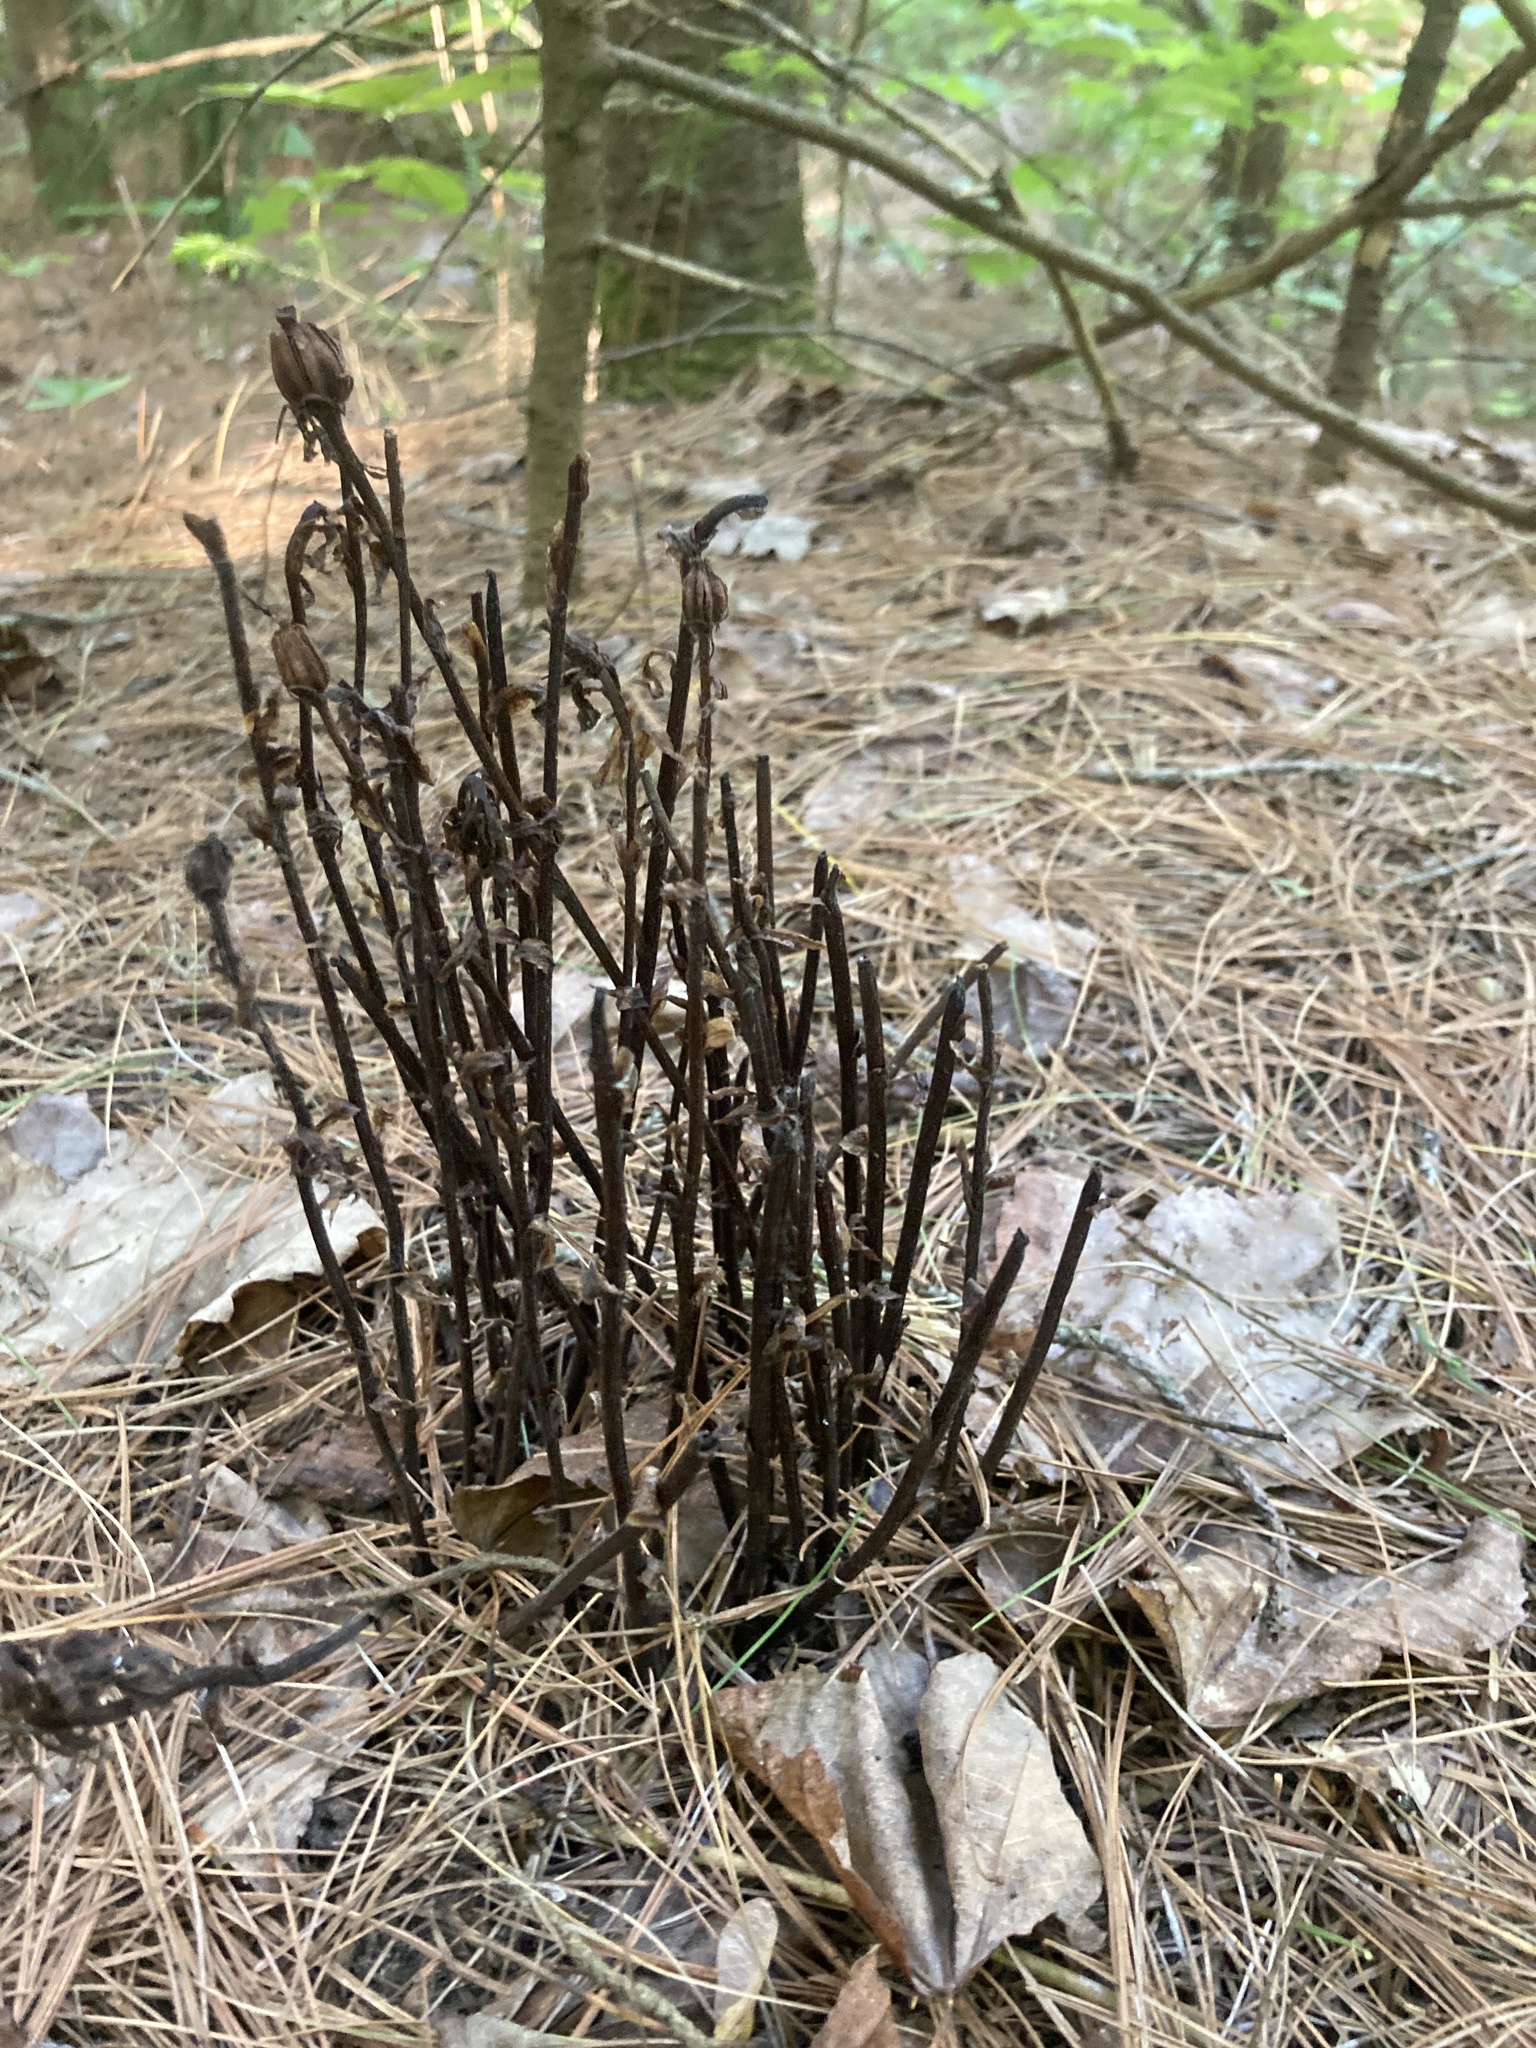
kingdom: Plantae
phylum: Tracheophyta
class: Magnoliopsida
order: Ericales
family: Ericaceae
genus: Monotropa
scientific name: Monotropa uniflora
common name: Convulsion root
